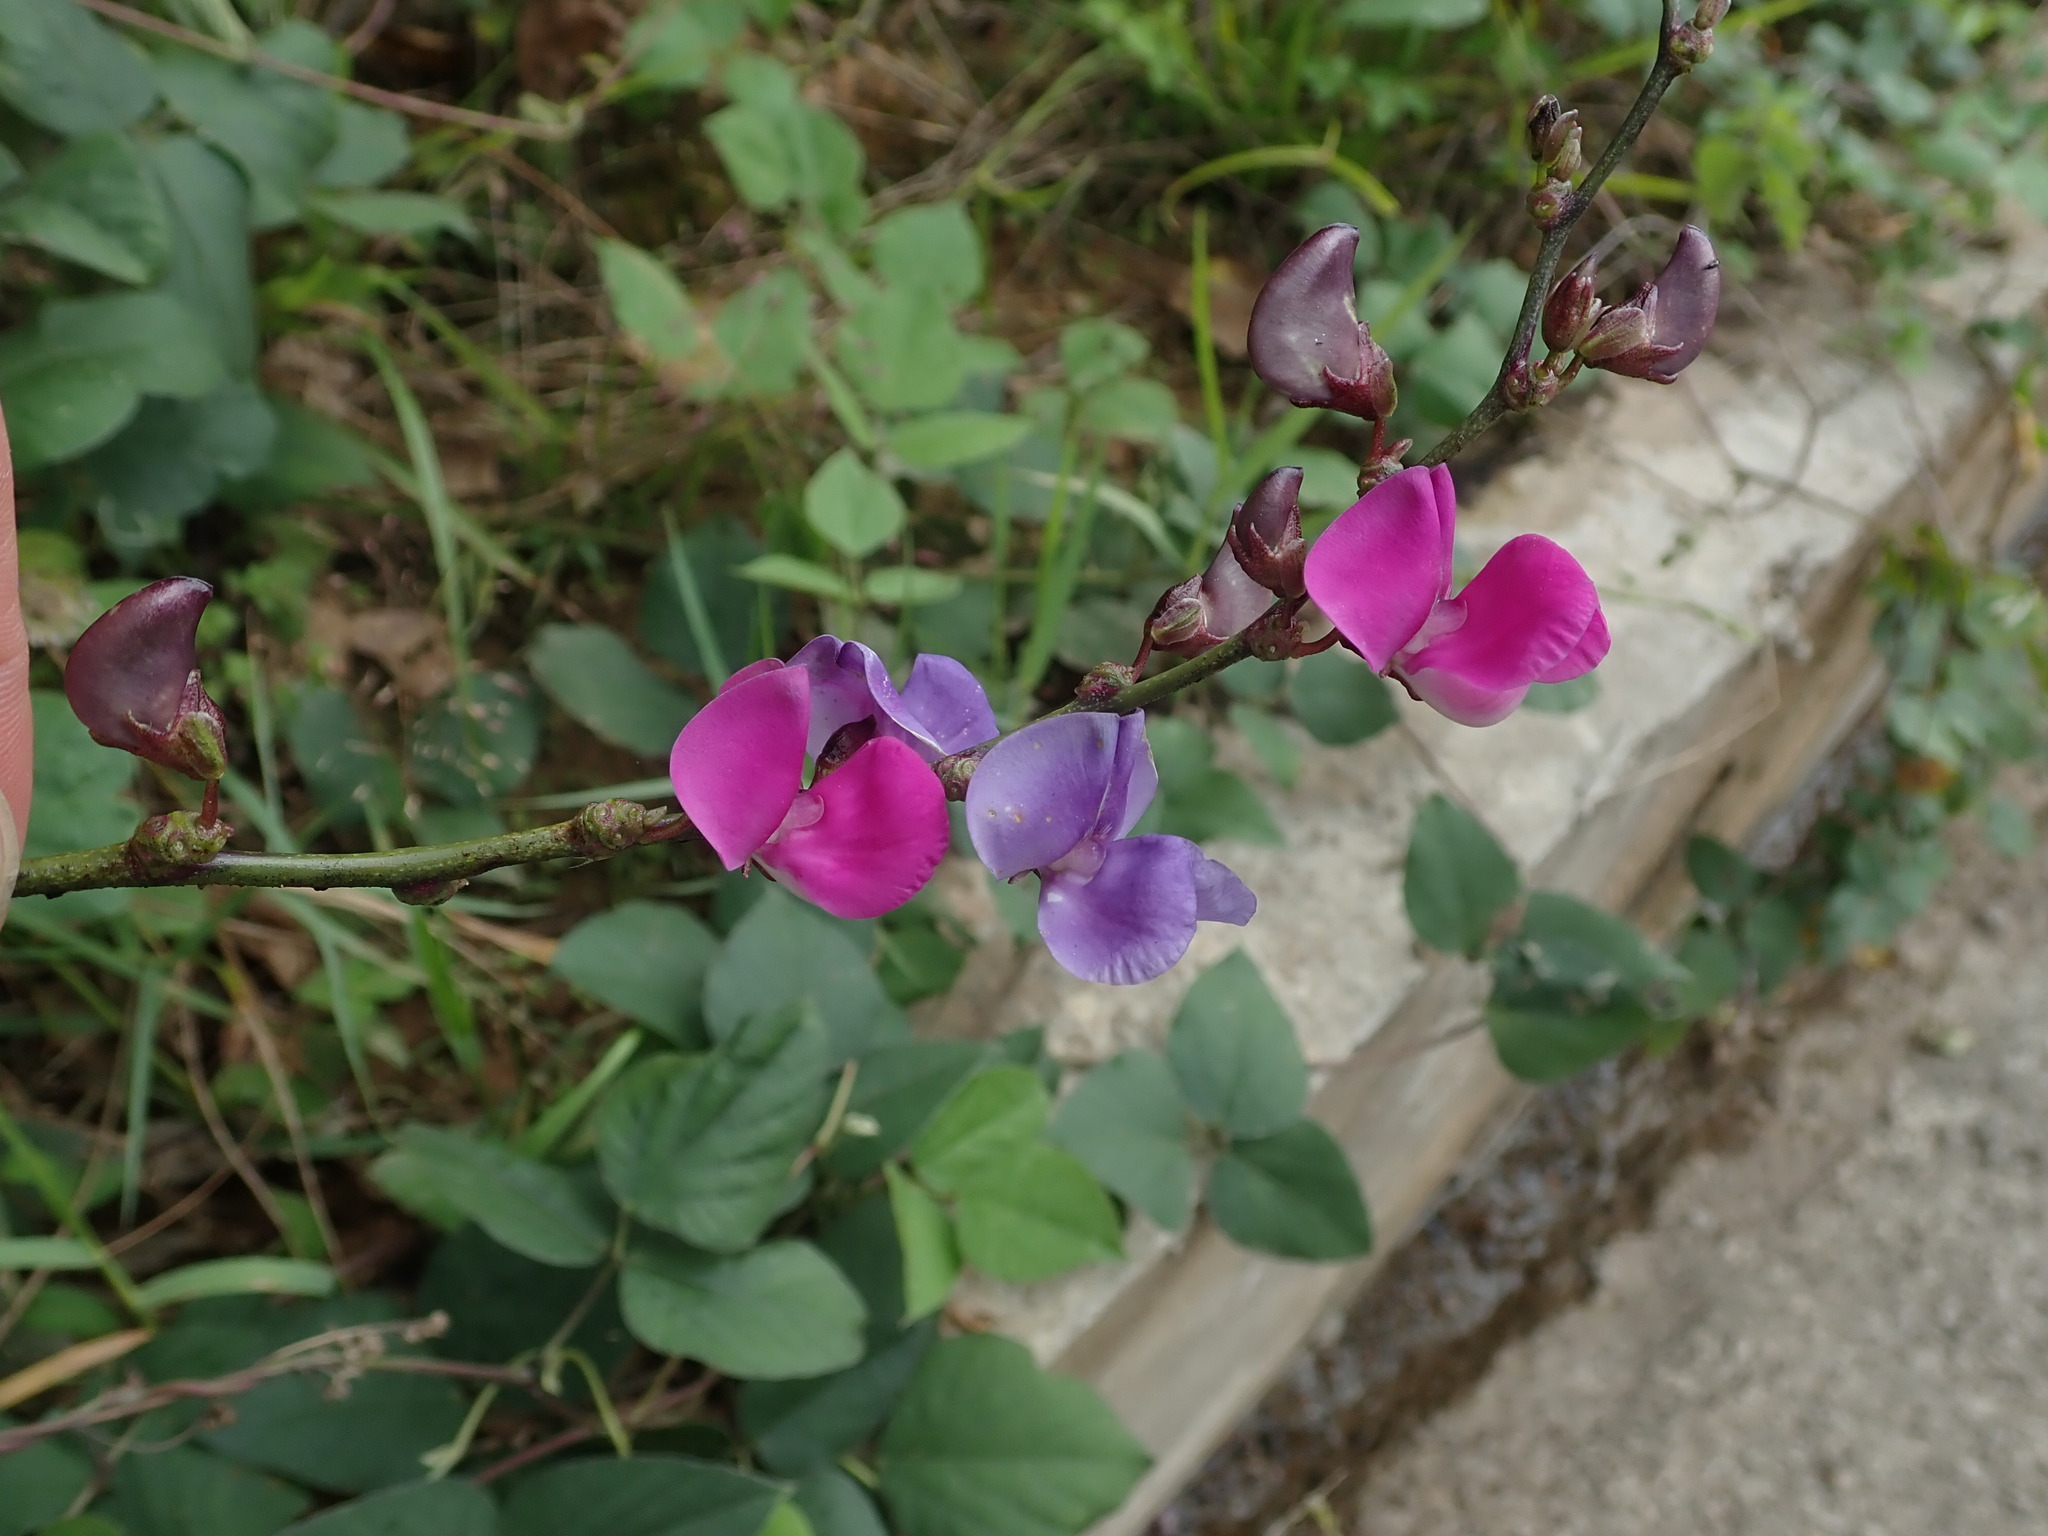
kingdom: Plantae
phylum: Tracheophyta
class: Magnoliopsida
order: Fabales
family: Fabaceae
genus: Lablab
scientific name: Lablab purpureus
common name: Lablab-bean
